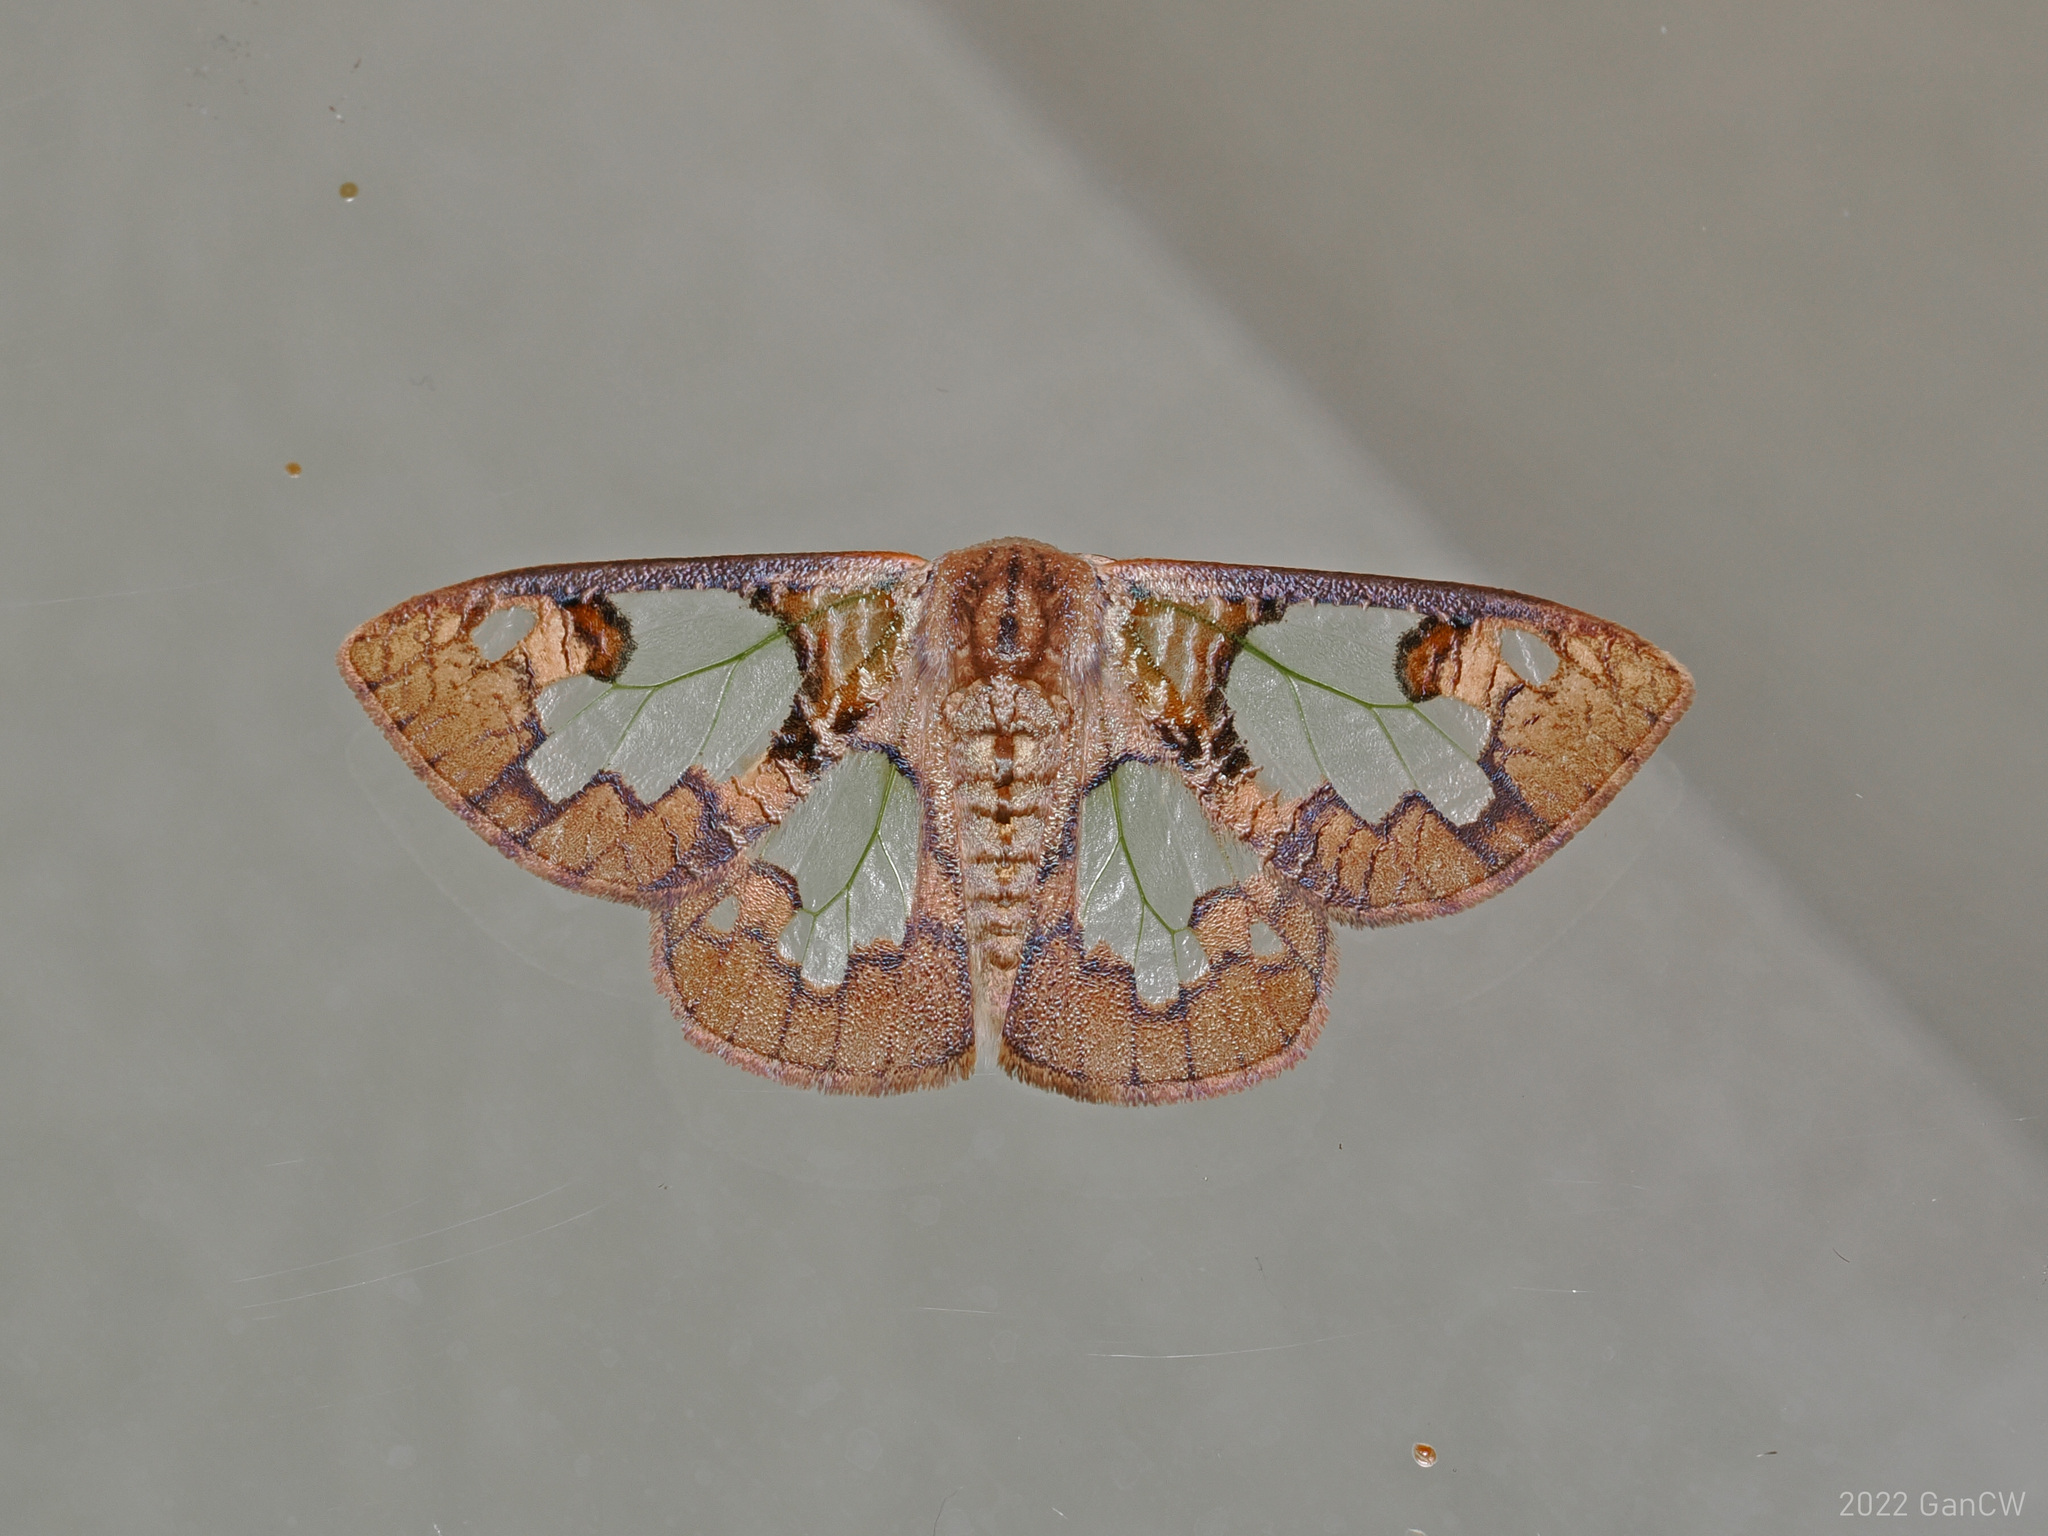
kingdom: Animalia
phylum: Arthropoda
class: Insecta
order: Lepidoptera
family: Erebidae
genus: Carriola
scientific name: Carriola ecnomoda
